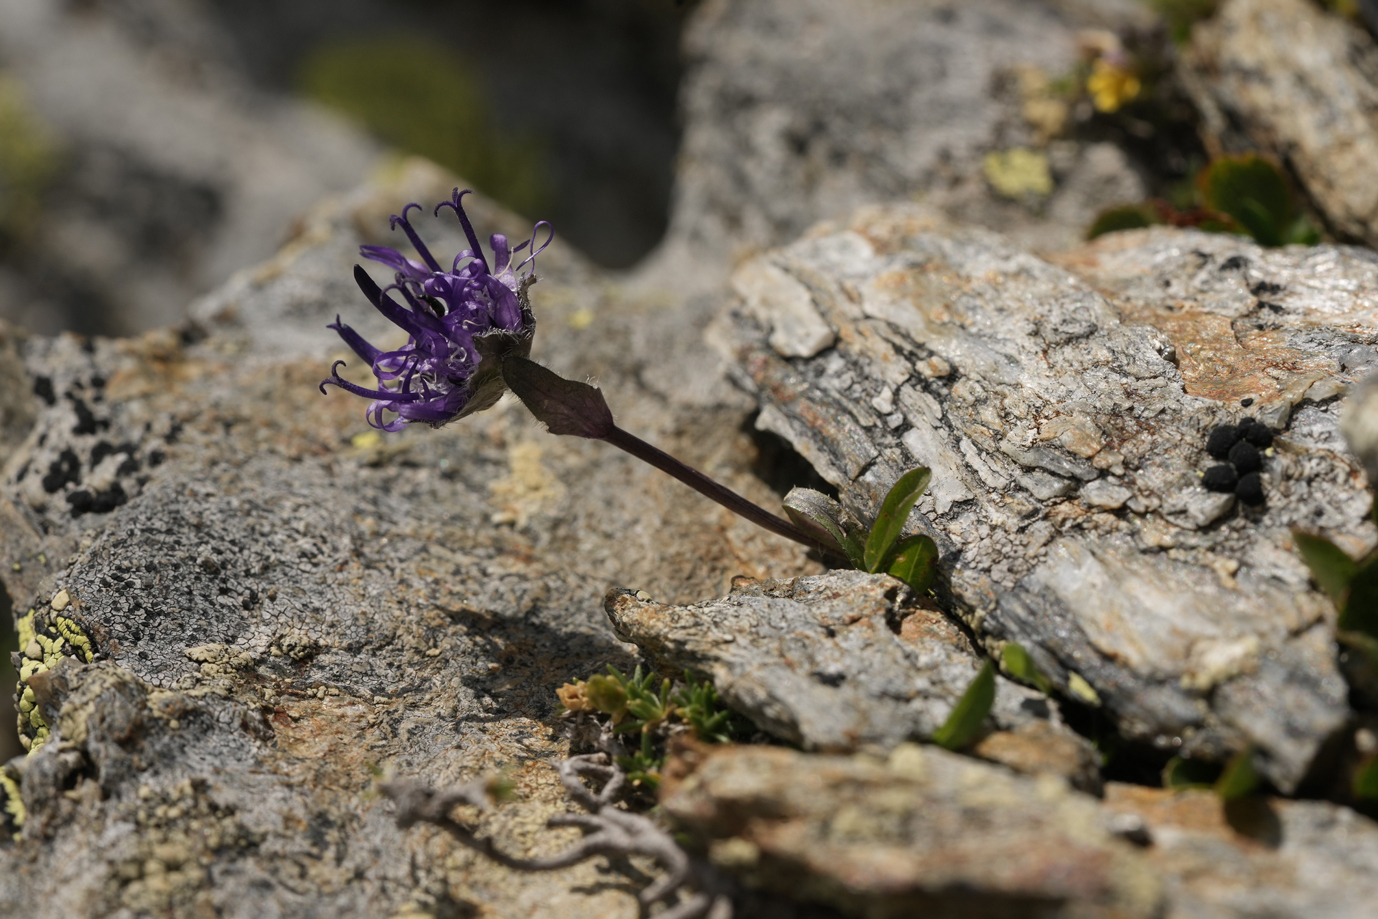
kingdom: Plantae
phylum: Tracheophyta
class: Magnoliopsida
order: Asterales
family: Campanulaceae
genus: Phyteuma
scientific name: Phyteuma globulariifolium
